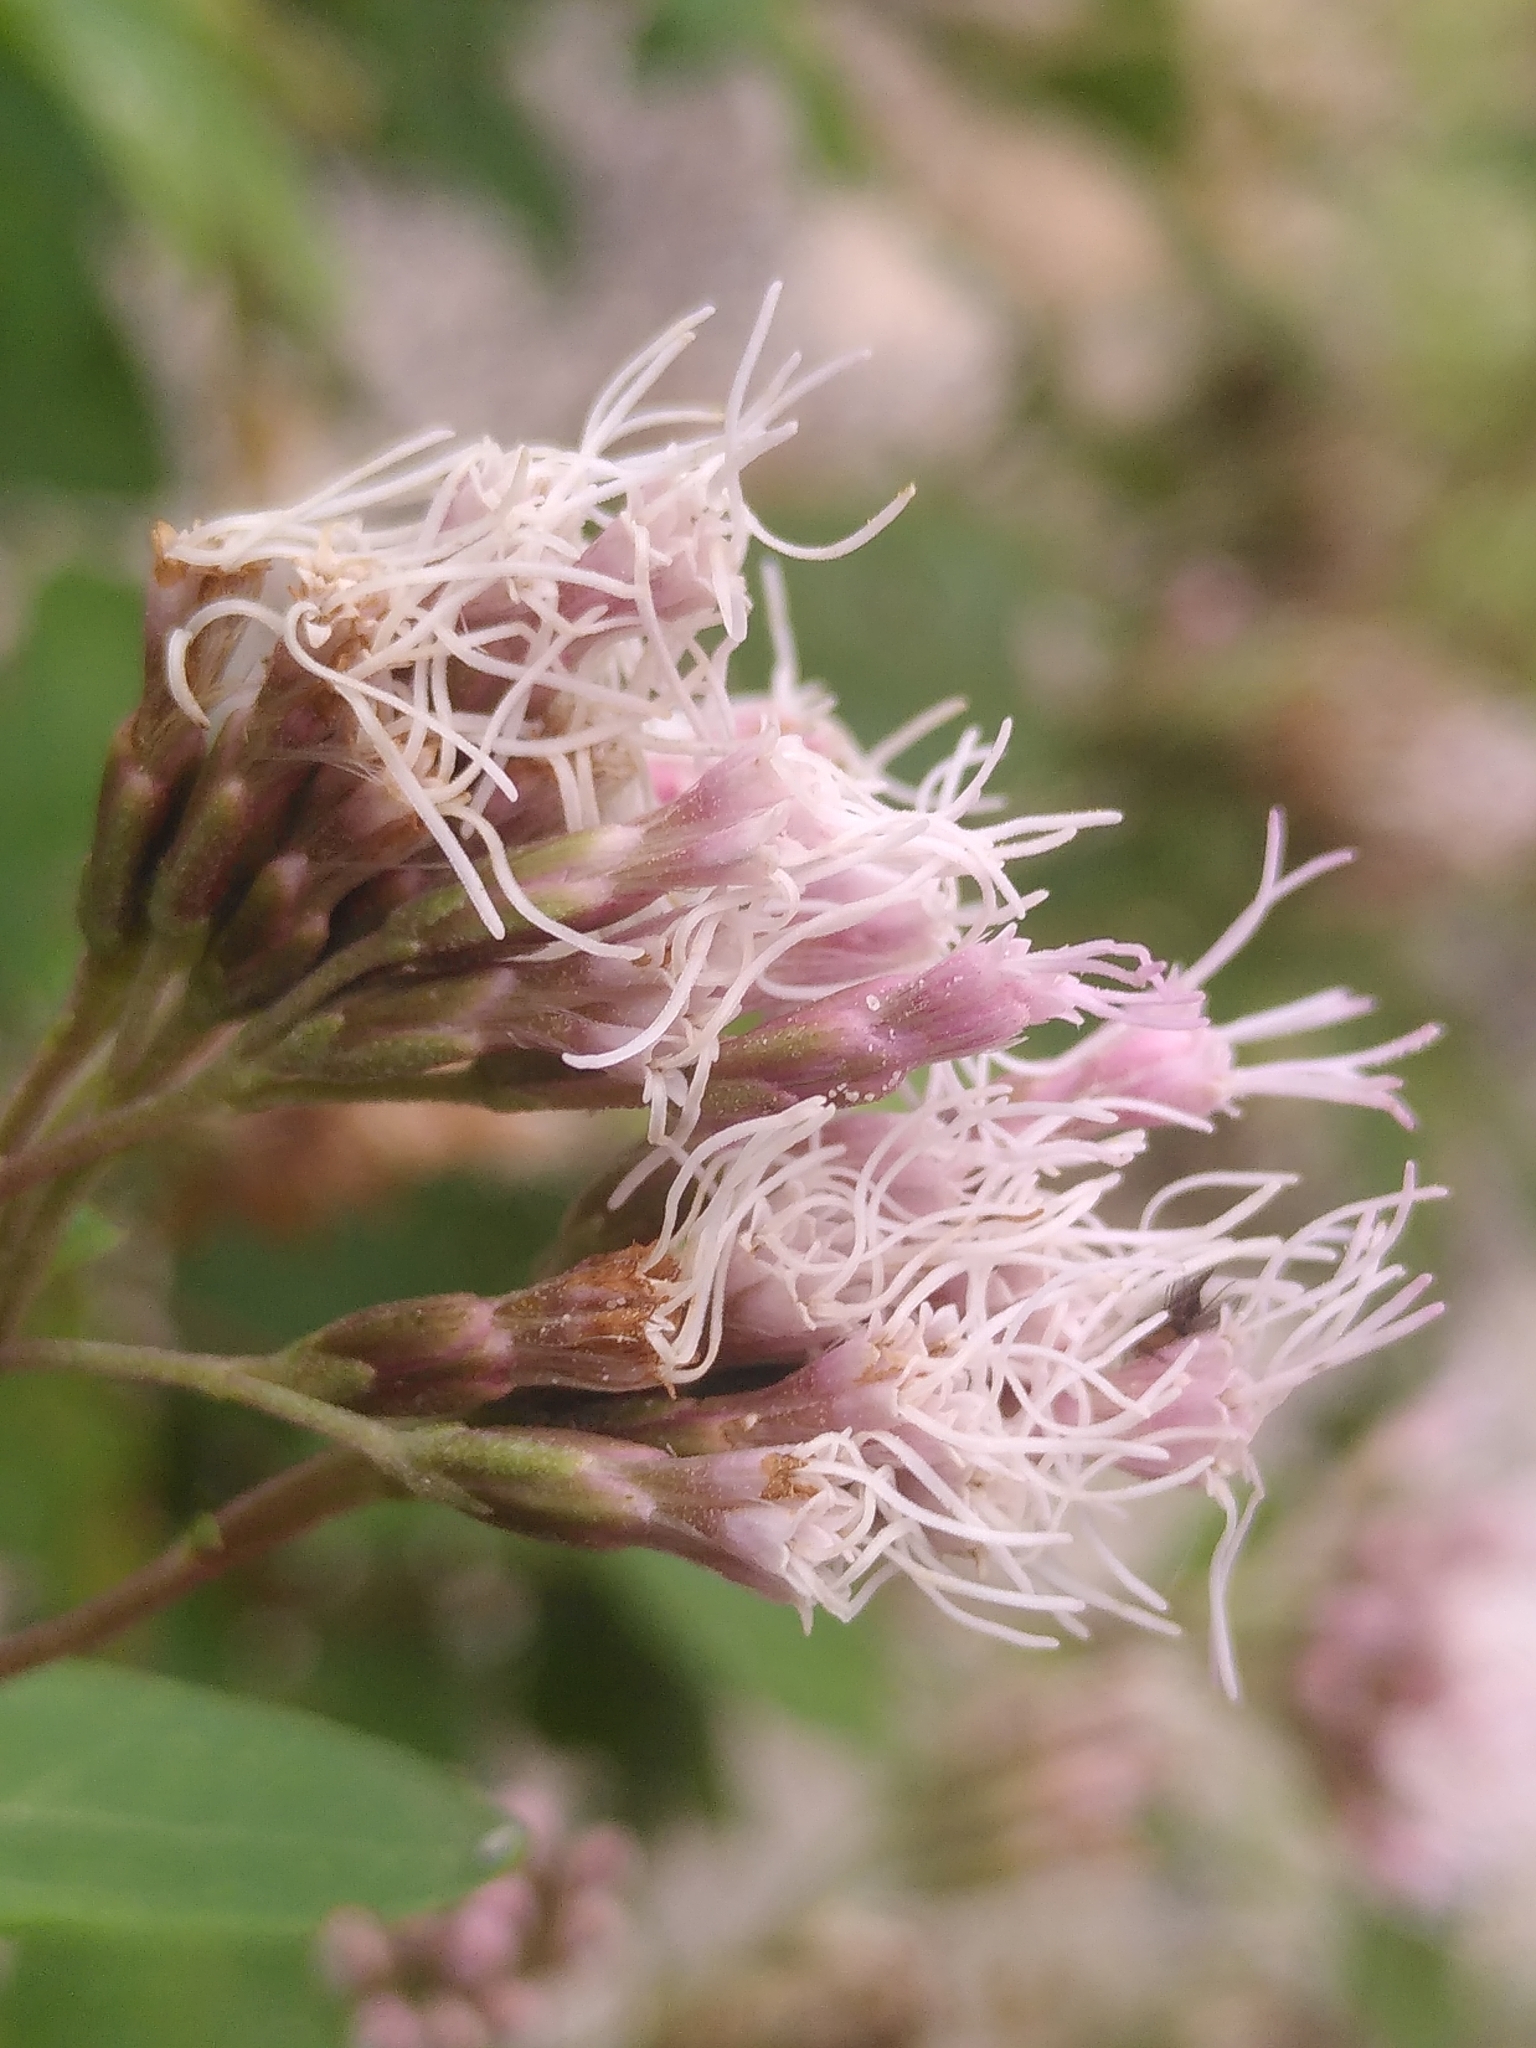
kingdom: Plantae
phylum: Tracheophyta
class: Magnoliopsida
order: Asterales
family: Asteraceae
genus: Eupatorium
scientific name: Eupatorium cannabinum
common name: Hemp-agrimony
